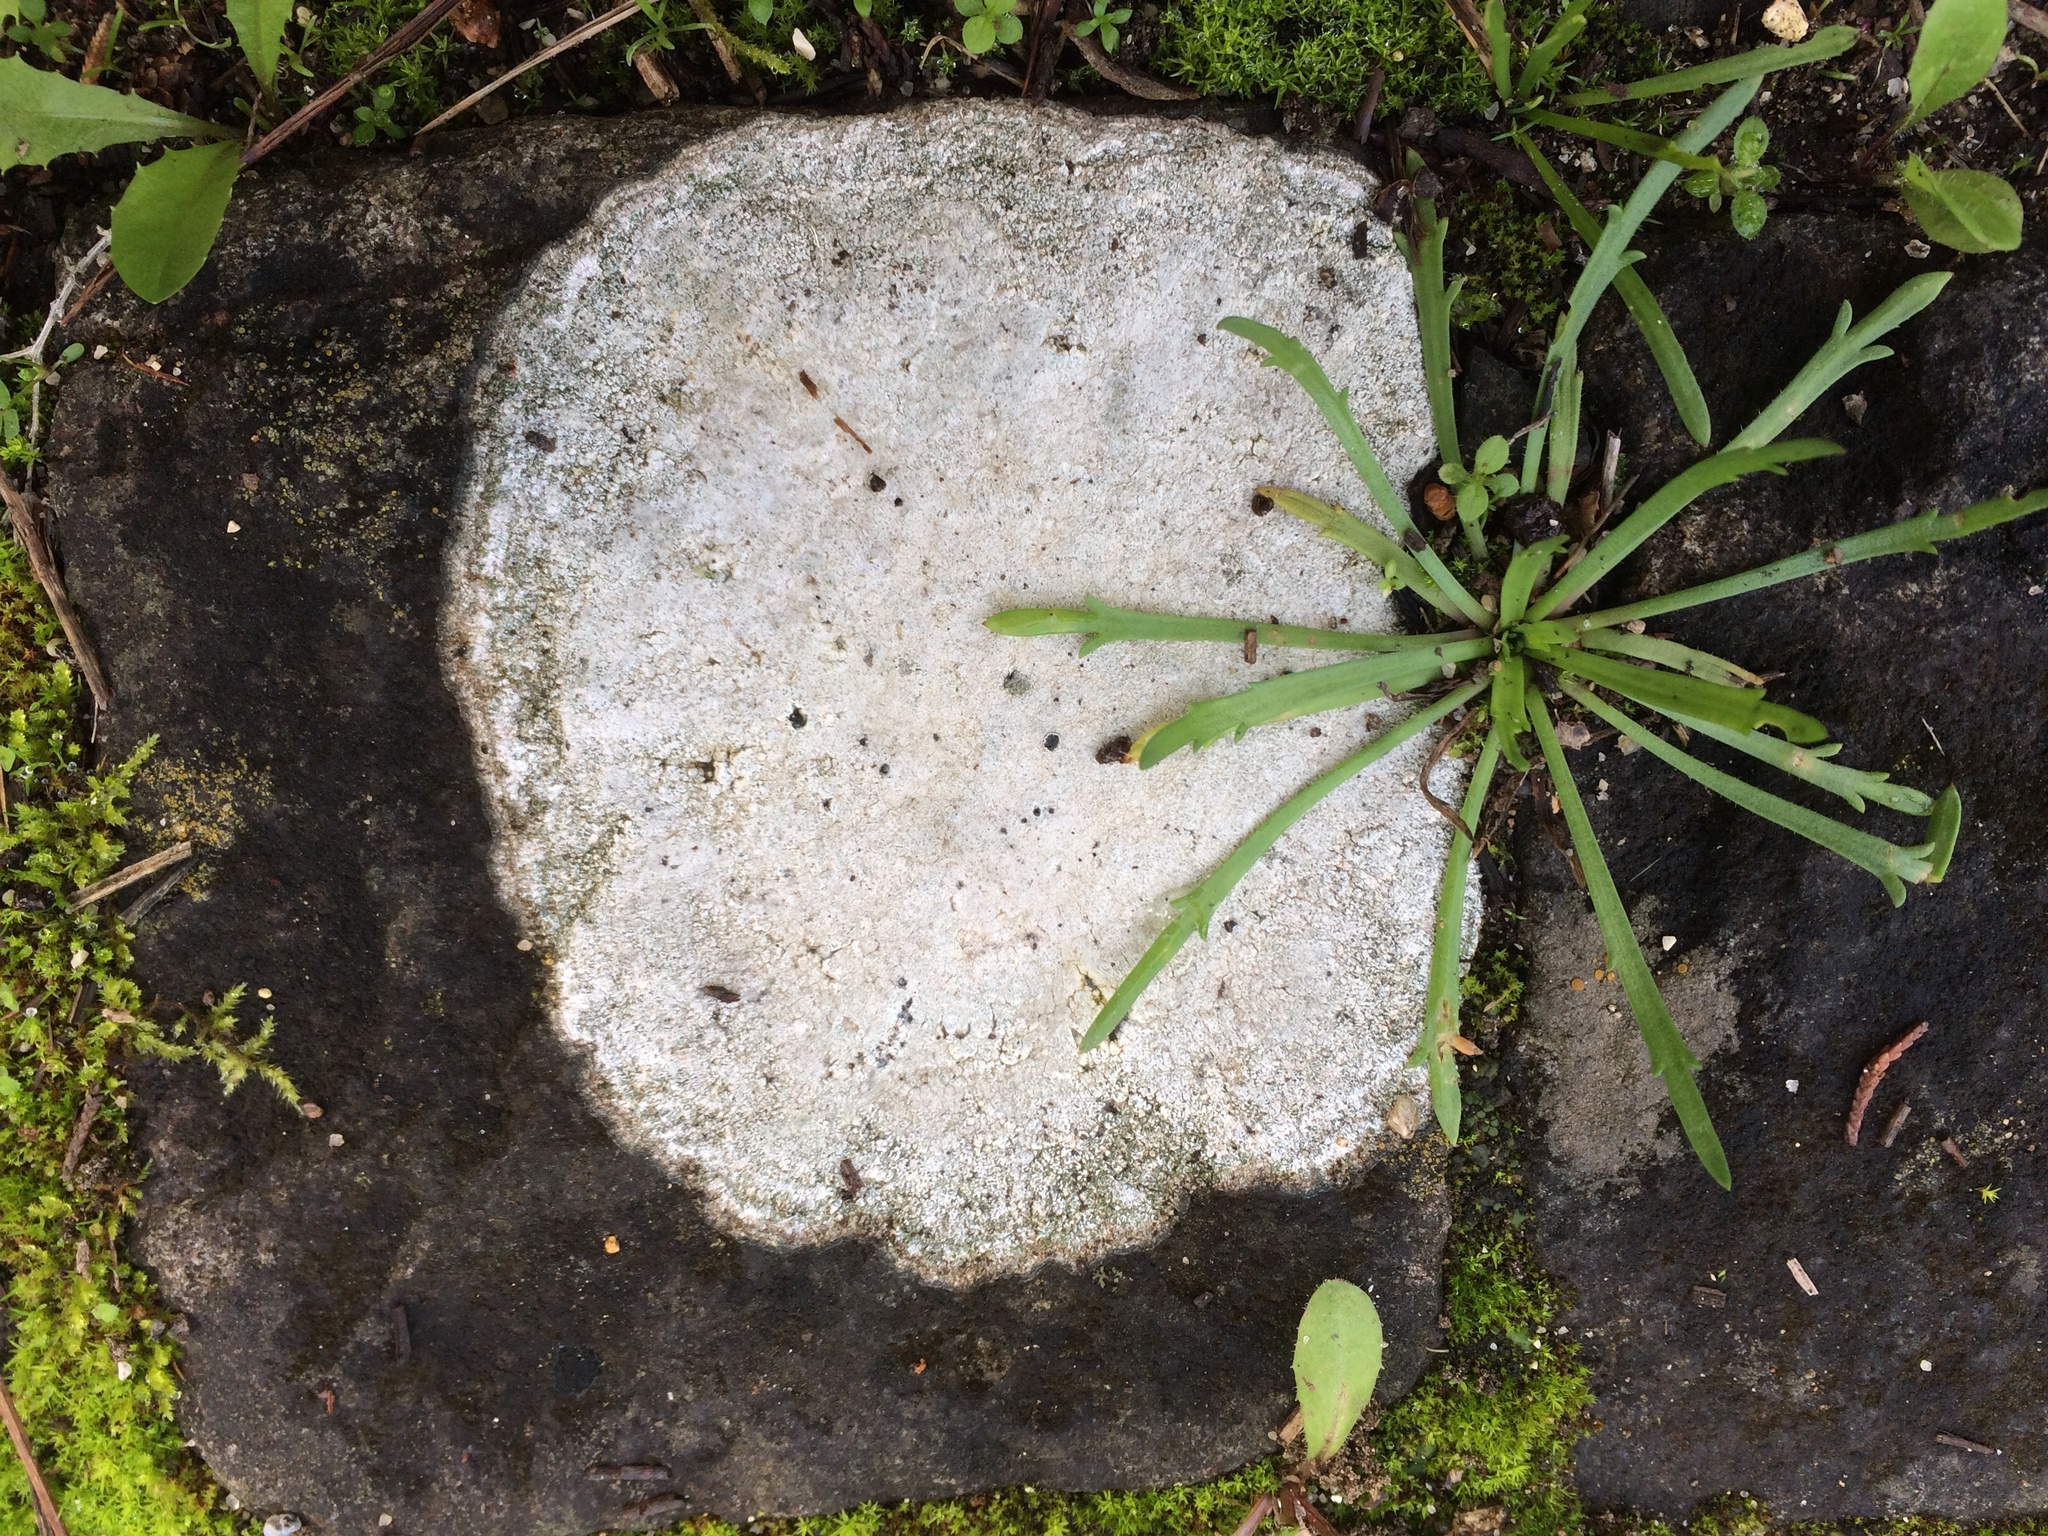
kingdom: Fungi
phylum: Ascomycota
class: Lecanoromycetes
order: Ostropales
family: Phlyctidaceae
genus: Phlyctis
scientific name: Phlyctis argena
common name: Whitewash lichen
